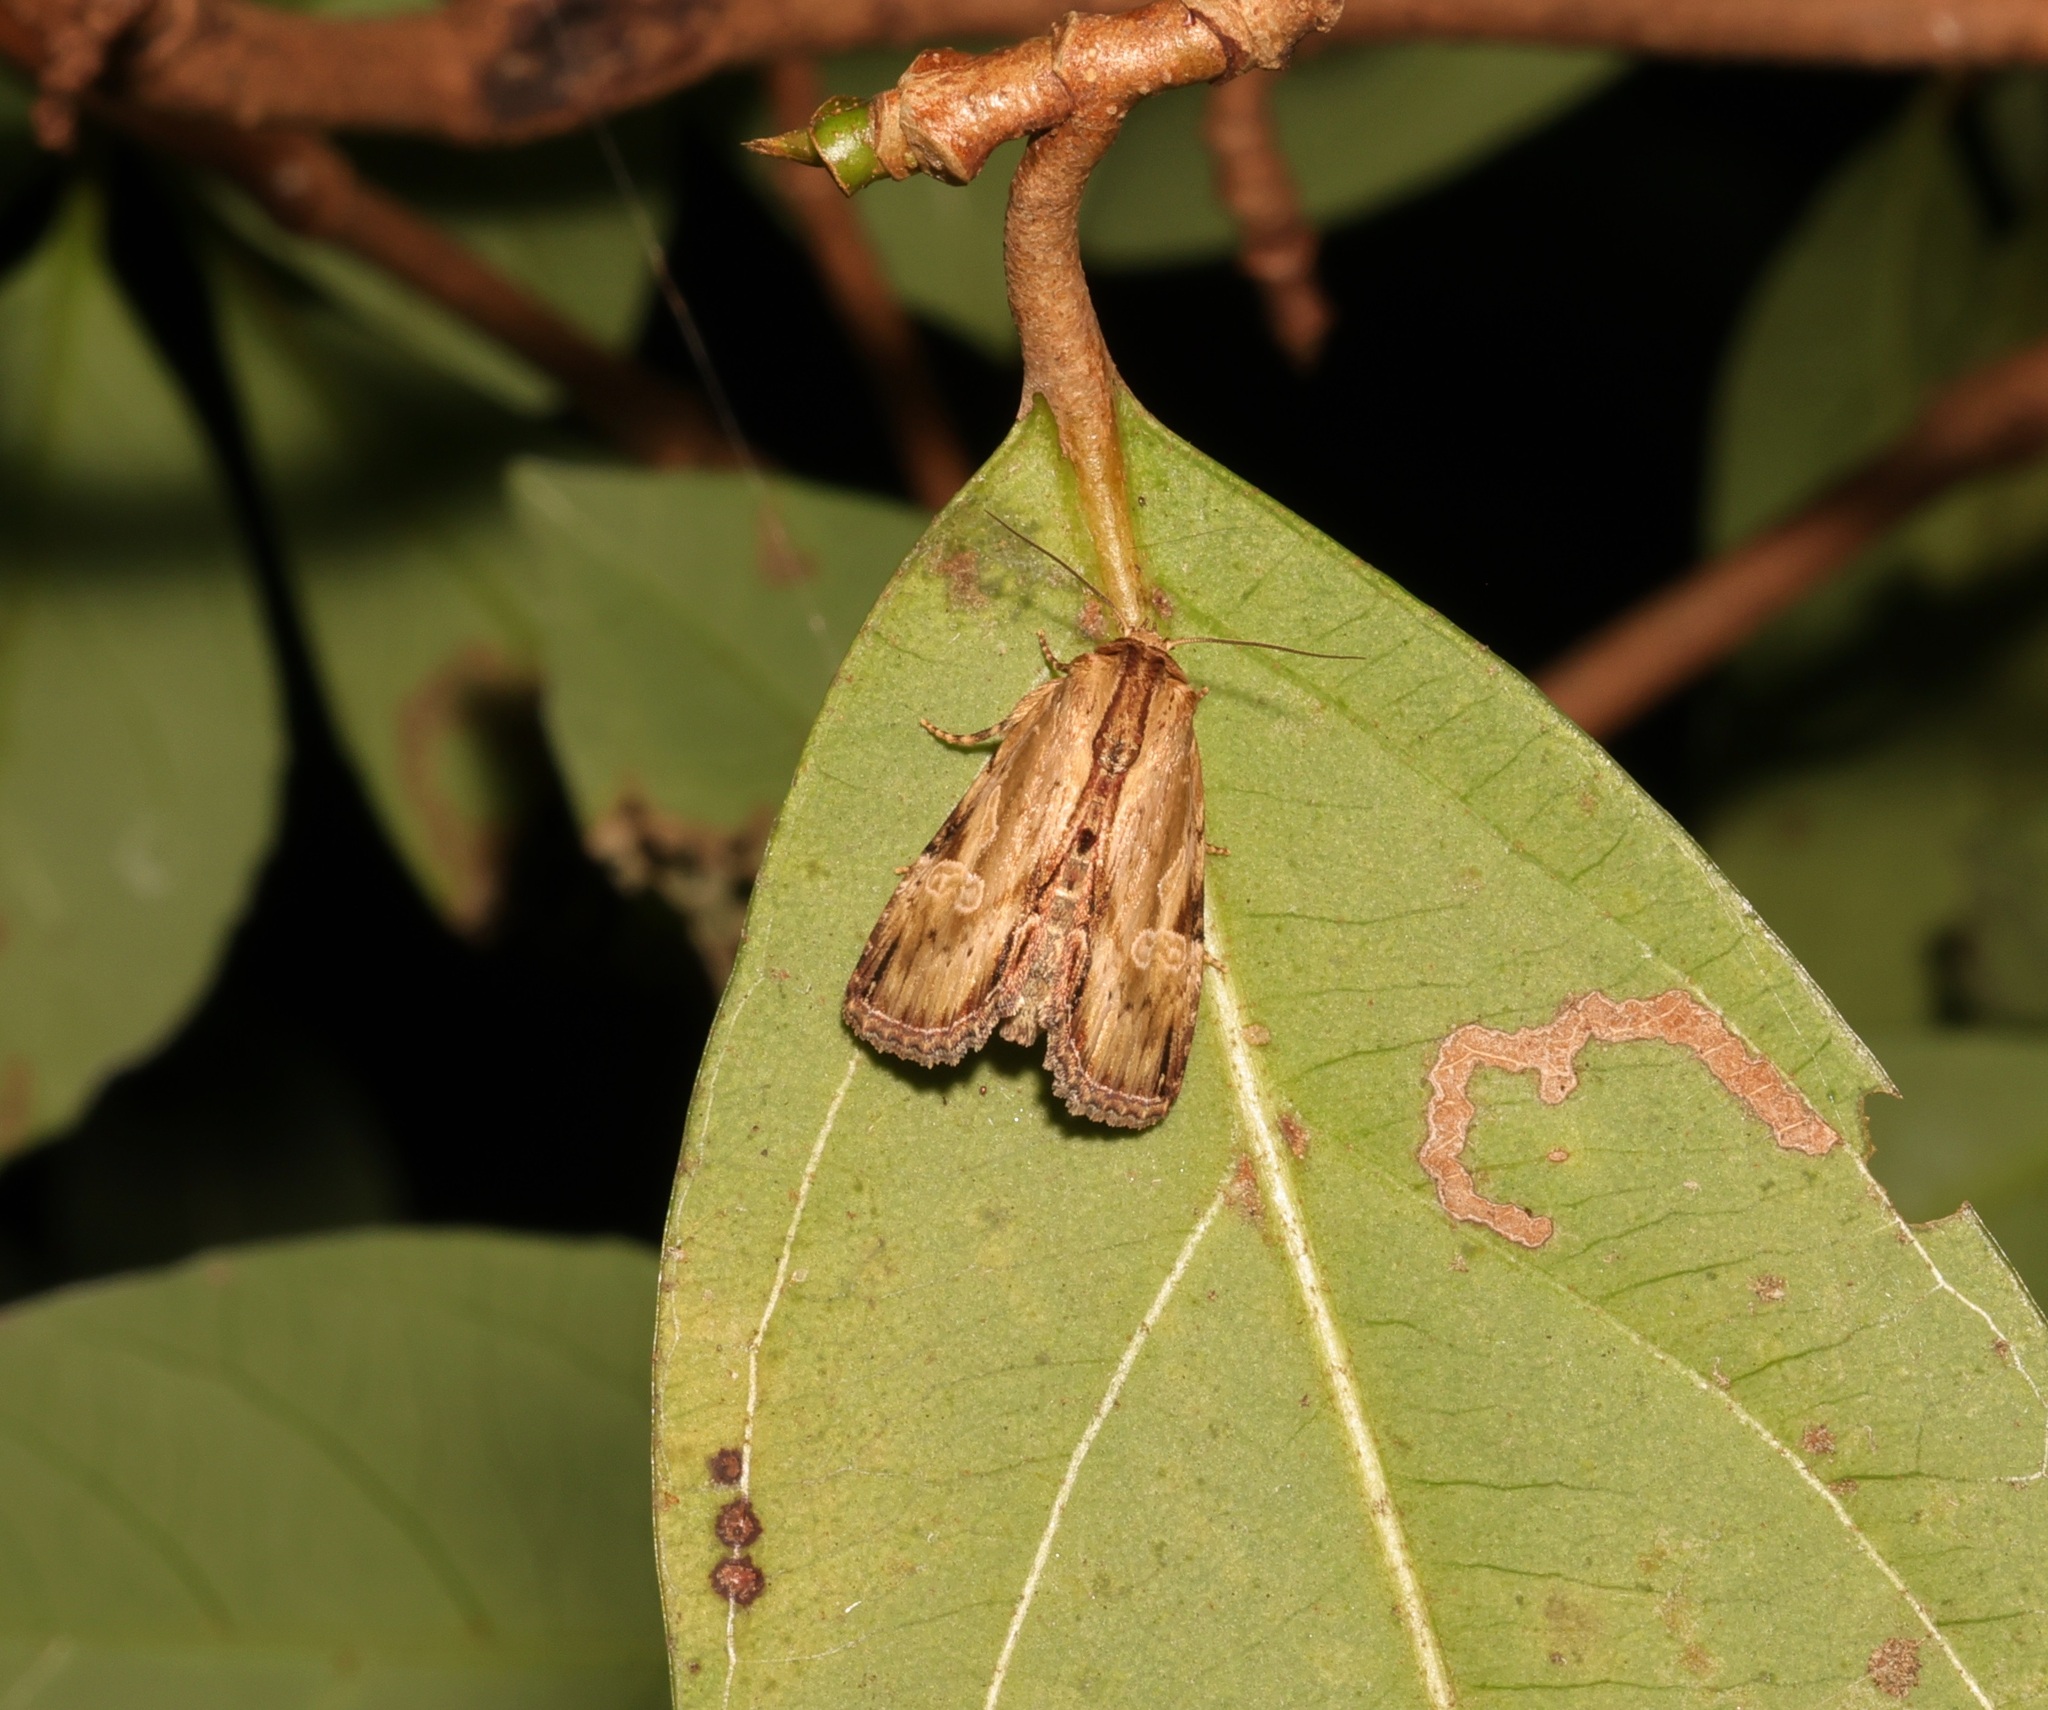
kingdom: Animalia
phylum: Arthropoda
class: Insecta
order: Lepidoptera
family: Noctuidae
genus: Antha
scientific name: Antha grata
